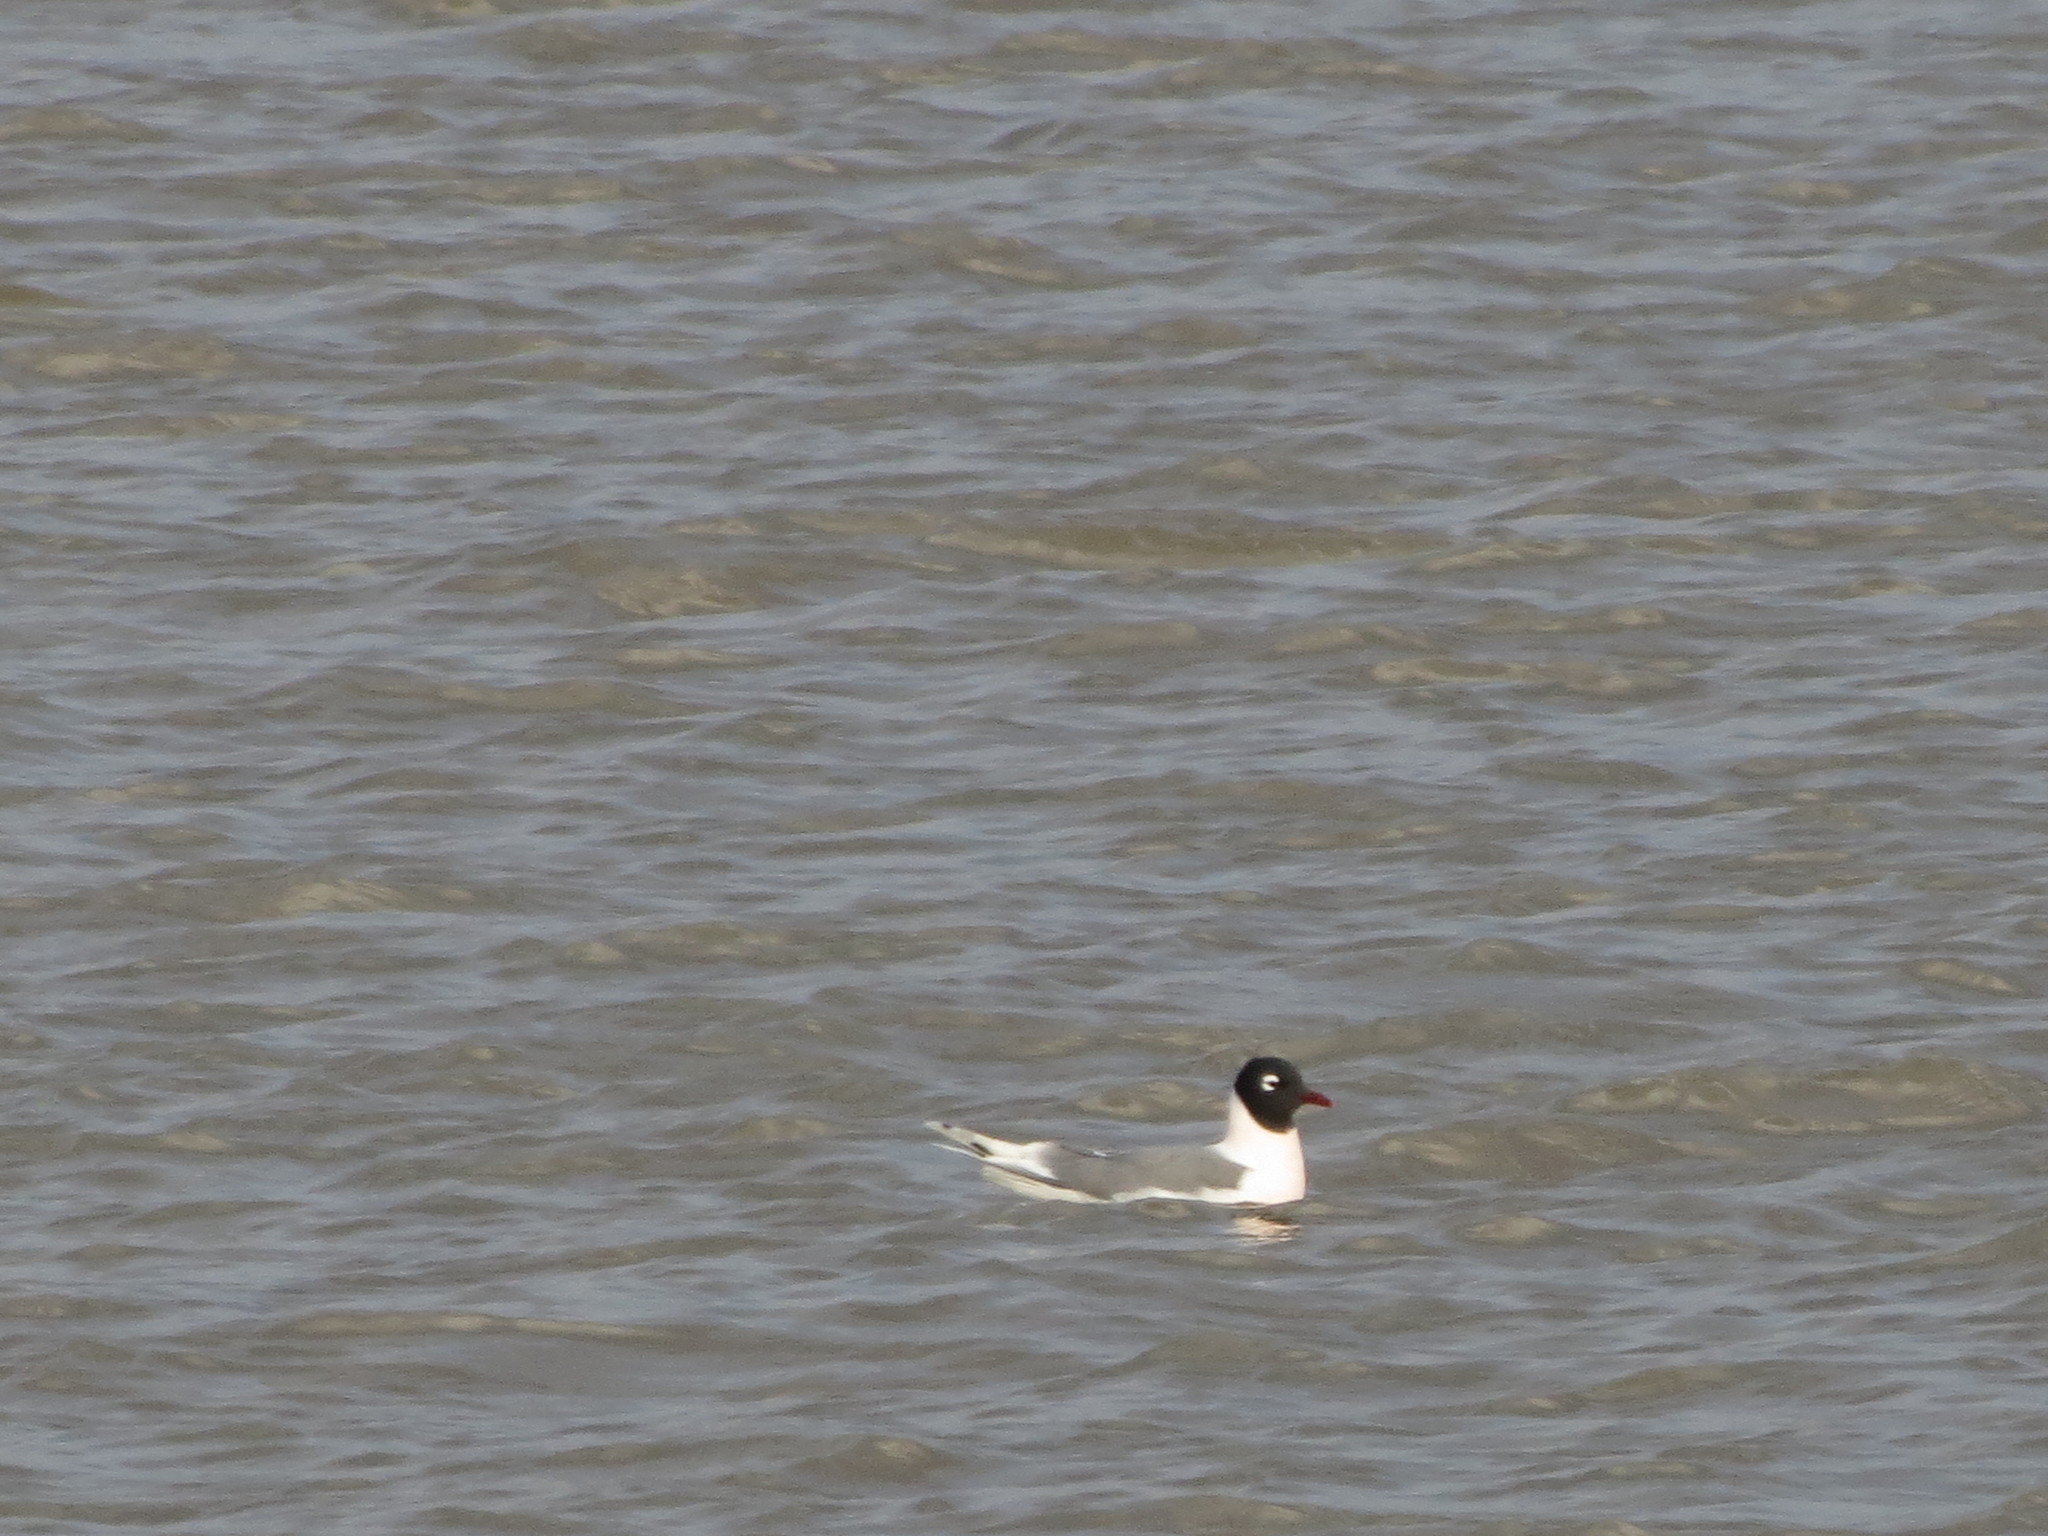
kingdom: Animalia
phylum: Chordata
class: Aves
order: Charadriiformes
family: Laridae
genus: Leucophaeus
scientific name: Leucophaeus pipixcan
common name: Franklin's gull
